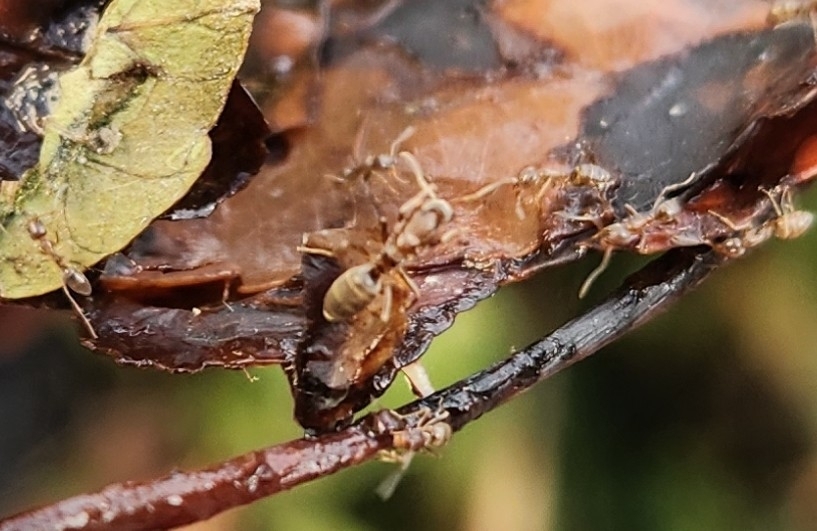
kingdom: Animalia
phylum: Arthropoda
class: Insecta
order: Hymenoptera
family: Formicidae
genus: Linepithema
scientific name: Linepithema humile
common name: Argentine ant
